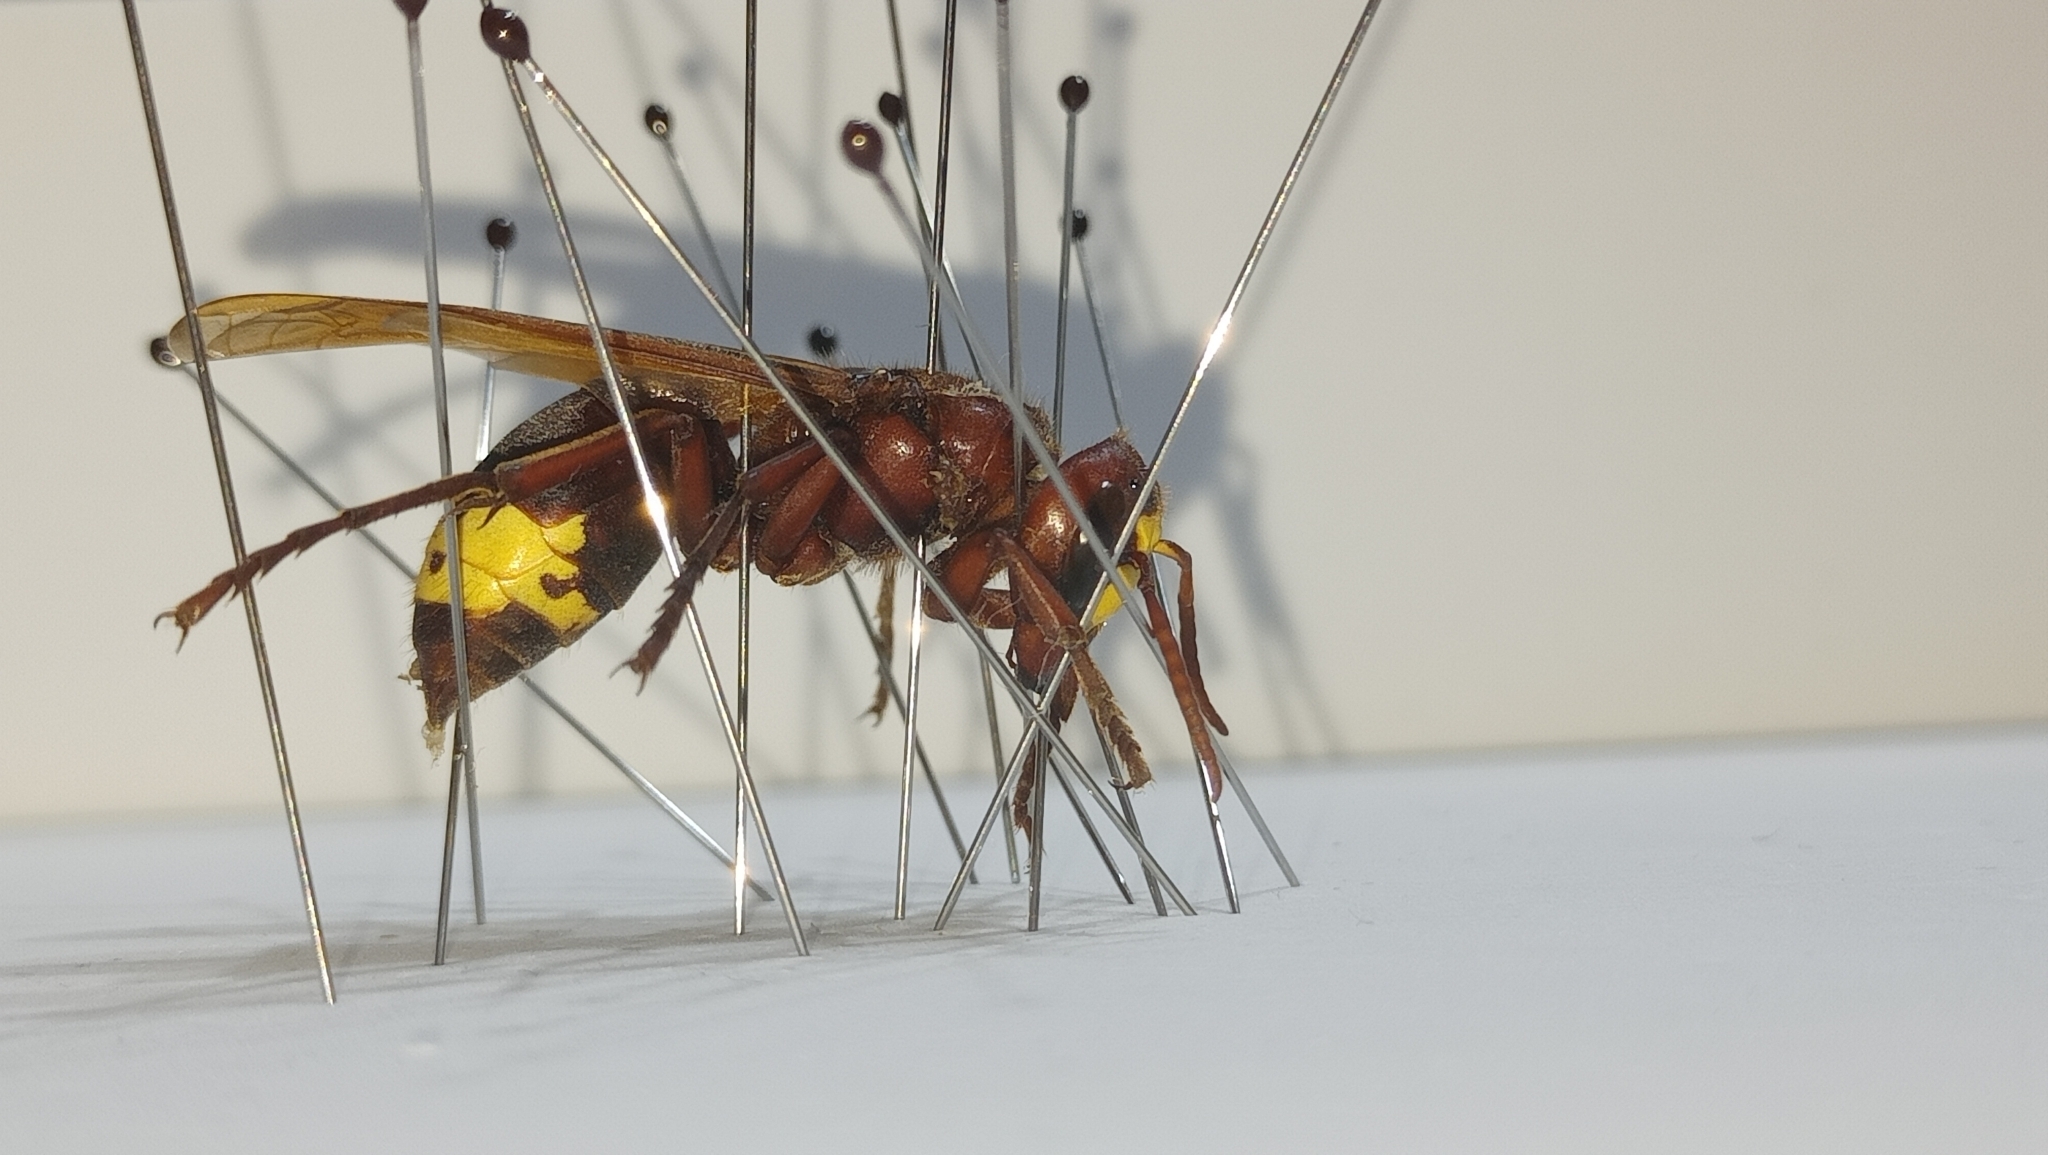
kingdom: Animalia
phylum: Arthropoda
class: Insecta
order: Hymenoptera
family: Vespidae
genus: Vespa
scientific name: Vespa orientalis
